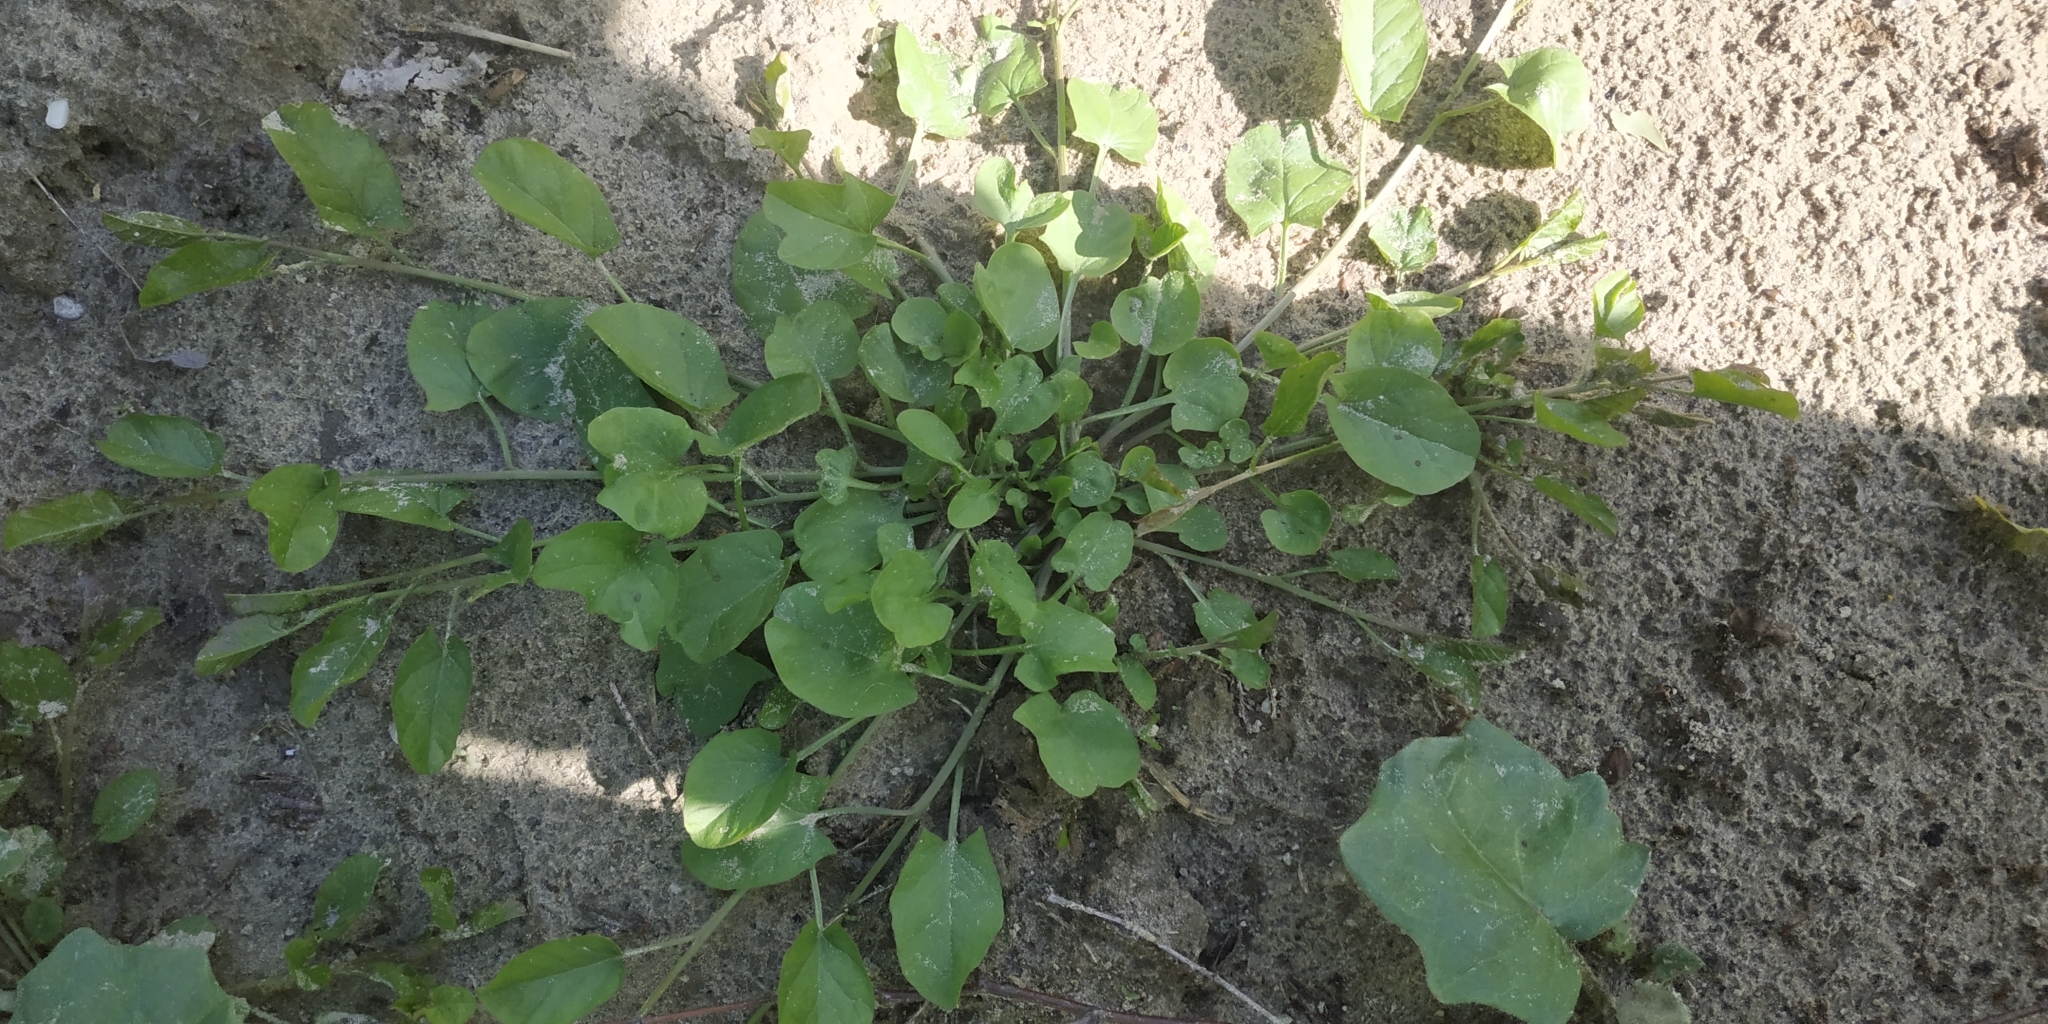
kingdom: Plantae
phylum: Tracheophyta
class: Magnoliopsida
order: Solanales
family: Convolvulaceae
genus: Convolvulus
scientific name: Convolvulus arvensis
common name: Field bindweed
